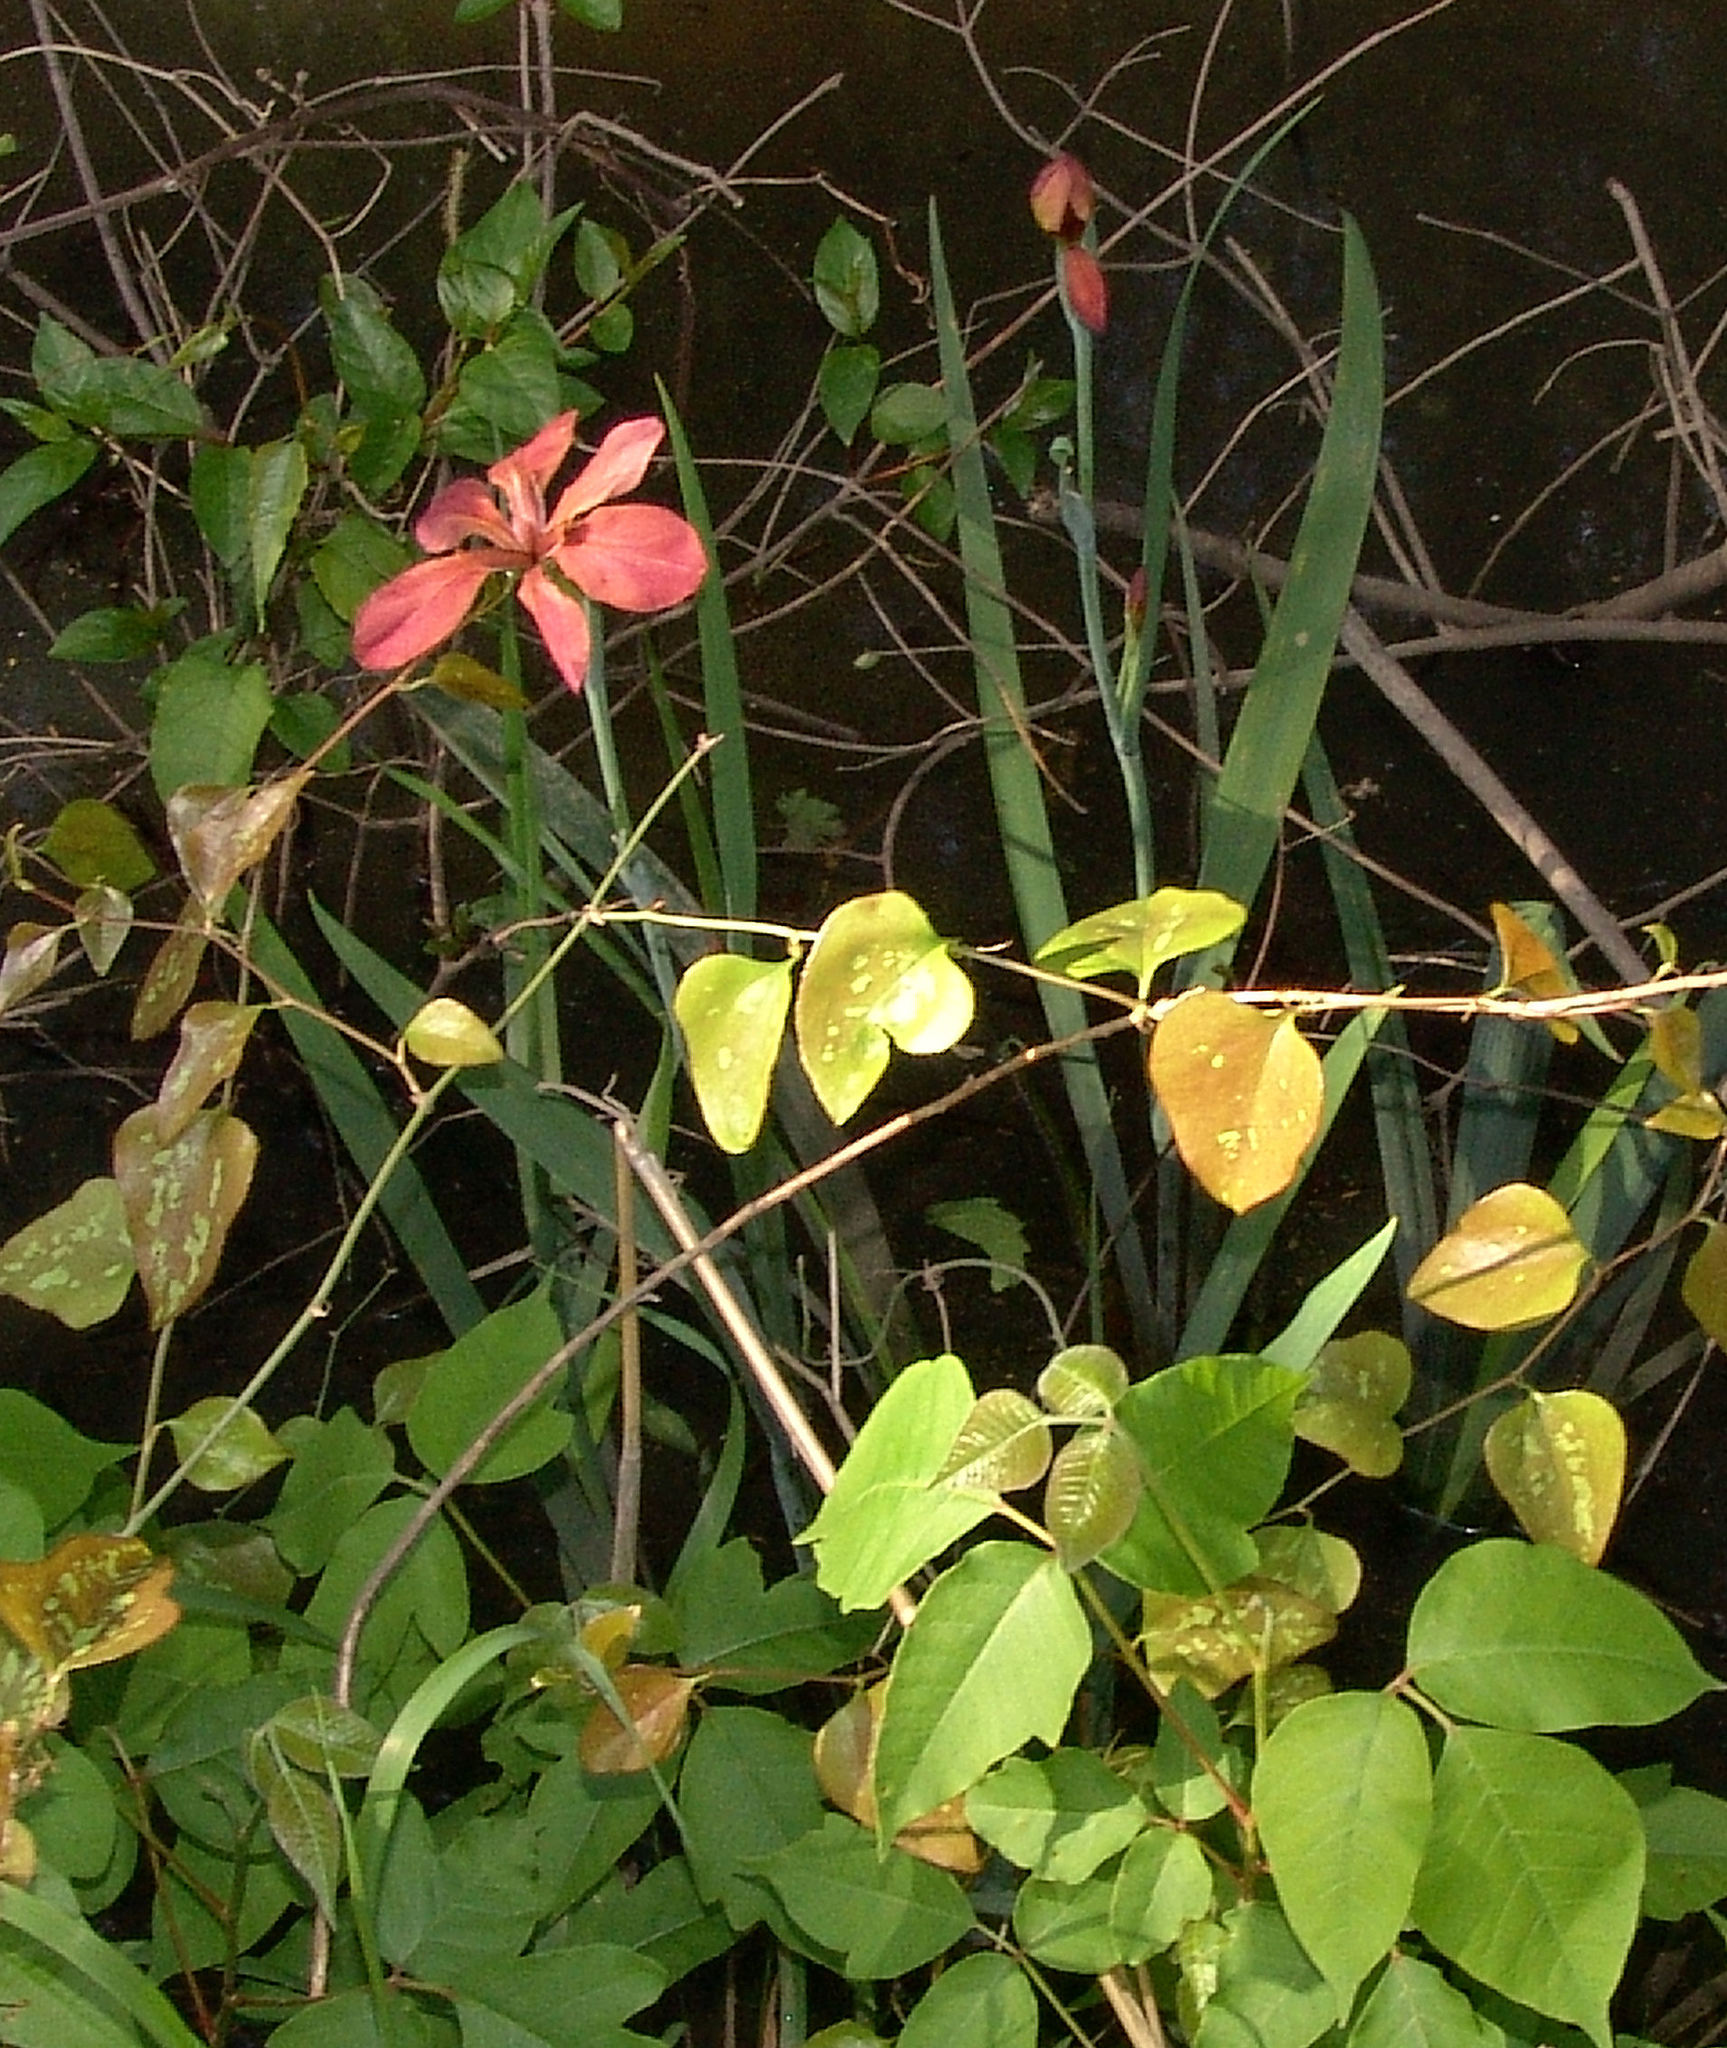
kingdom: Plantae
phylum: Tracheophyta
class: Liliopsida
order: Asparagales
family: Iridaceae
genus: Iris
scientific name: Iris fulva
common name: Copper iris
